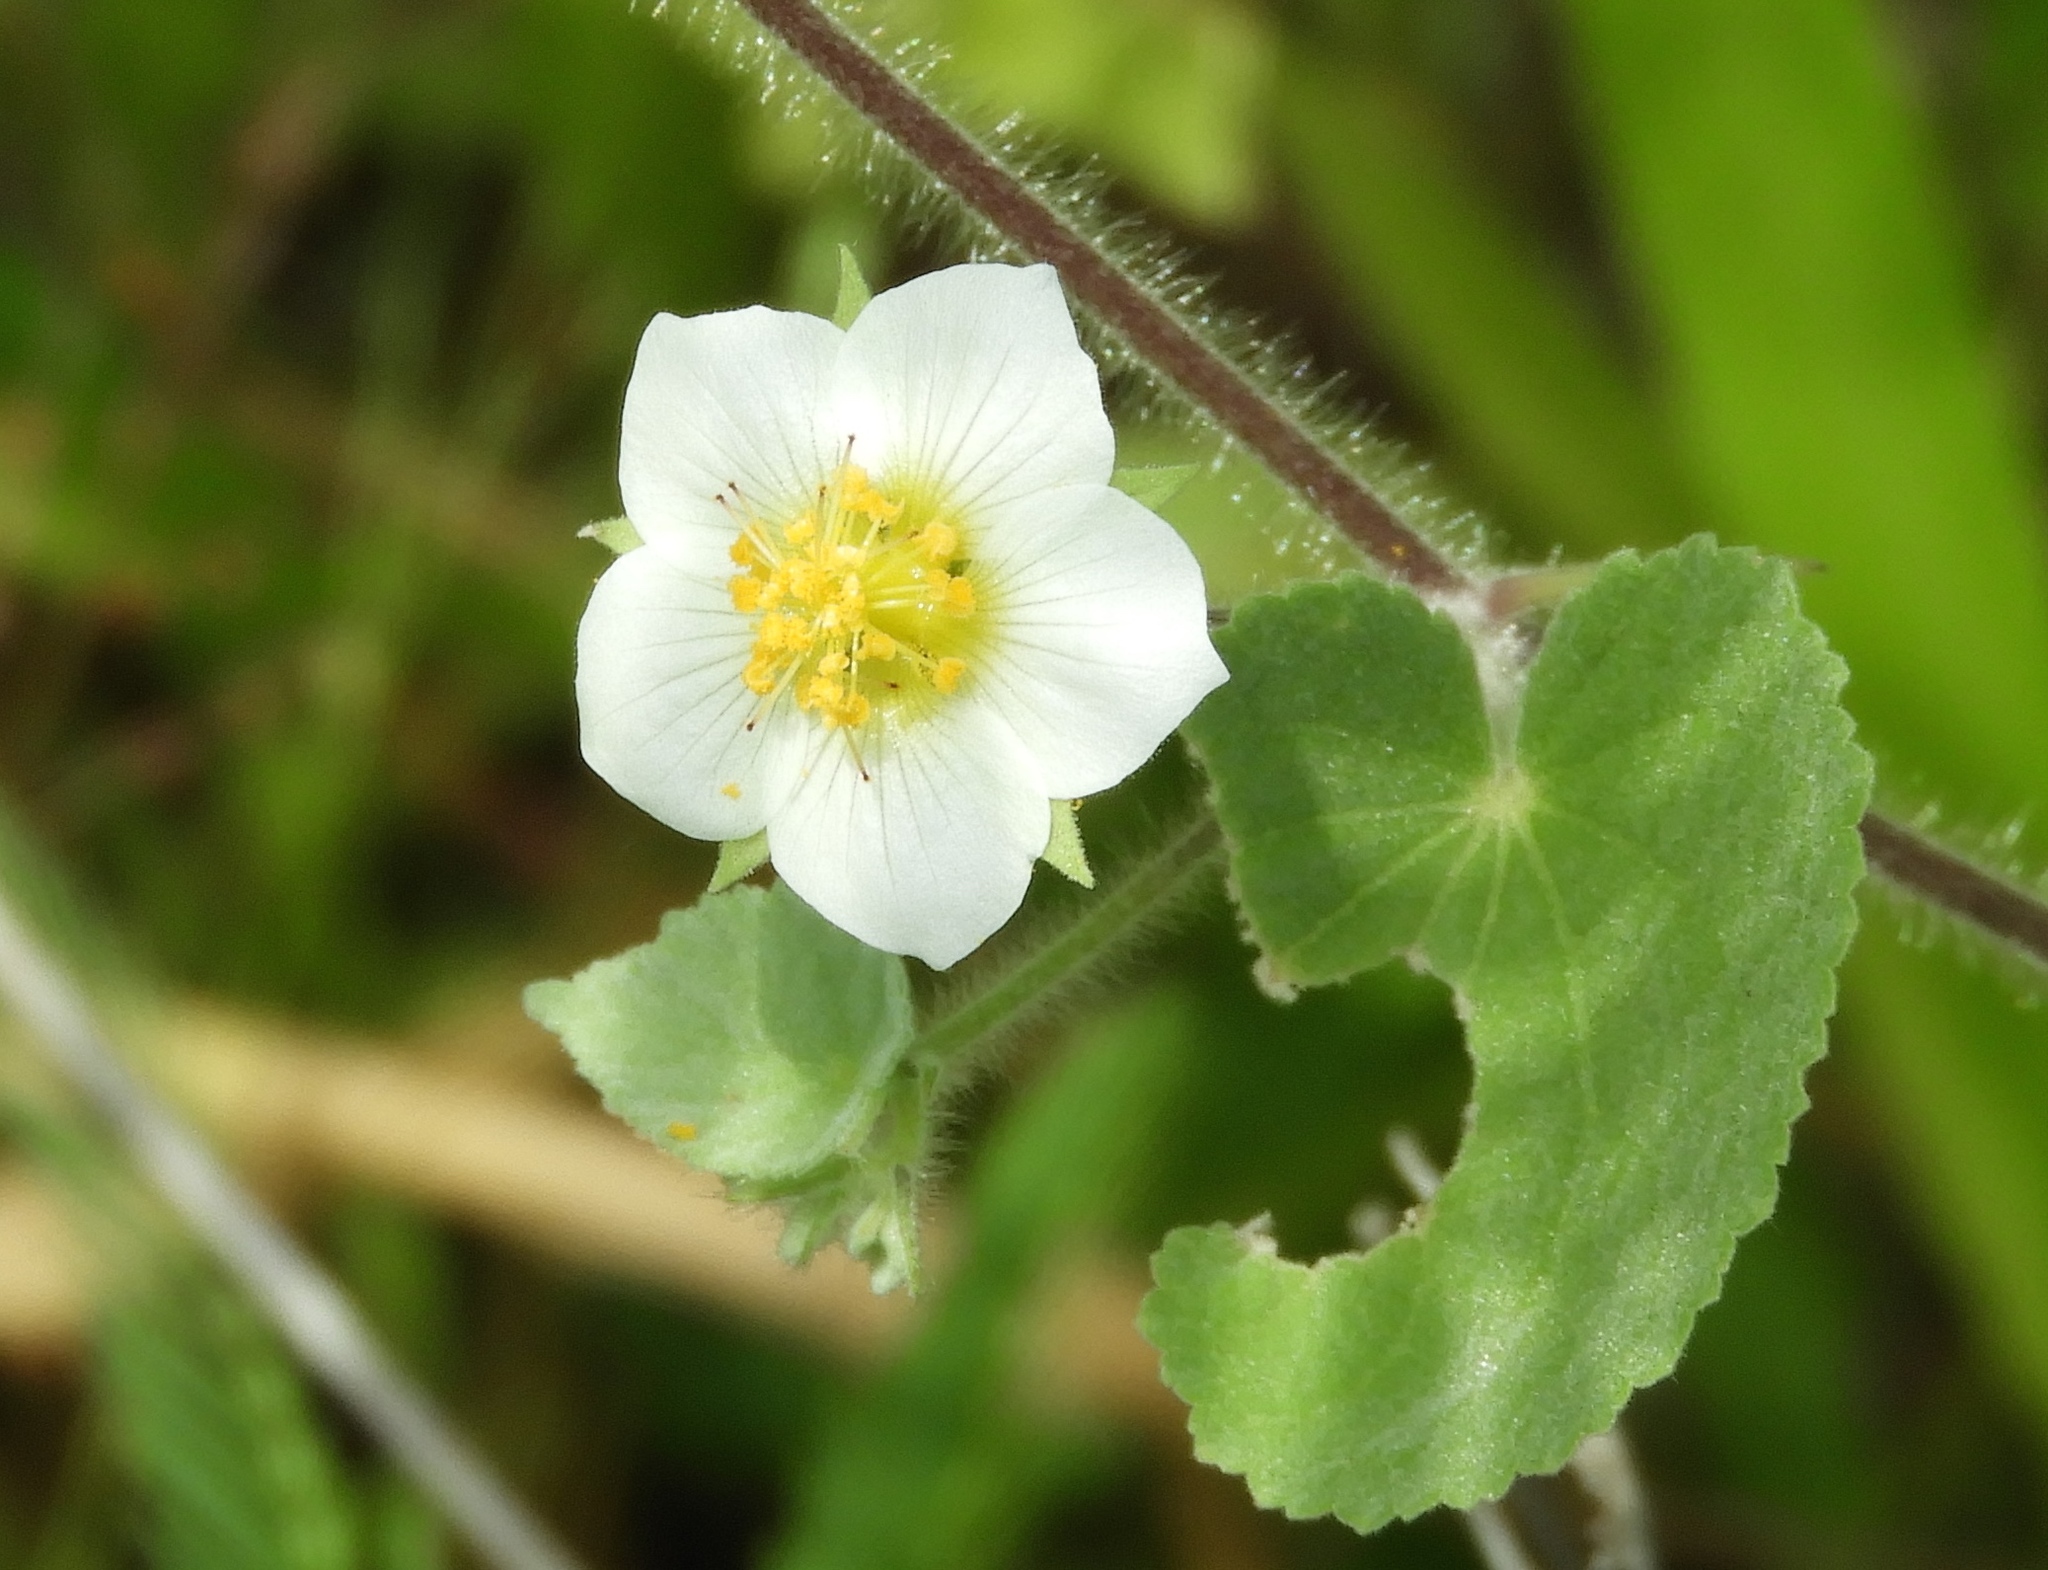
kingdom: Plantae
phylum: Tracheophyta
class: Magnoliopsida
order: Malvales
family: Malvaceae
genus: Herissantia
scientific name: Herissantia crispa
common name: Bladdermallow
